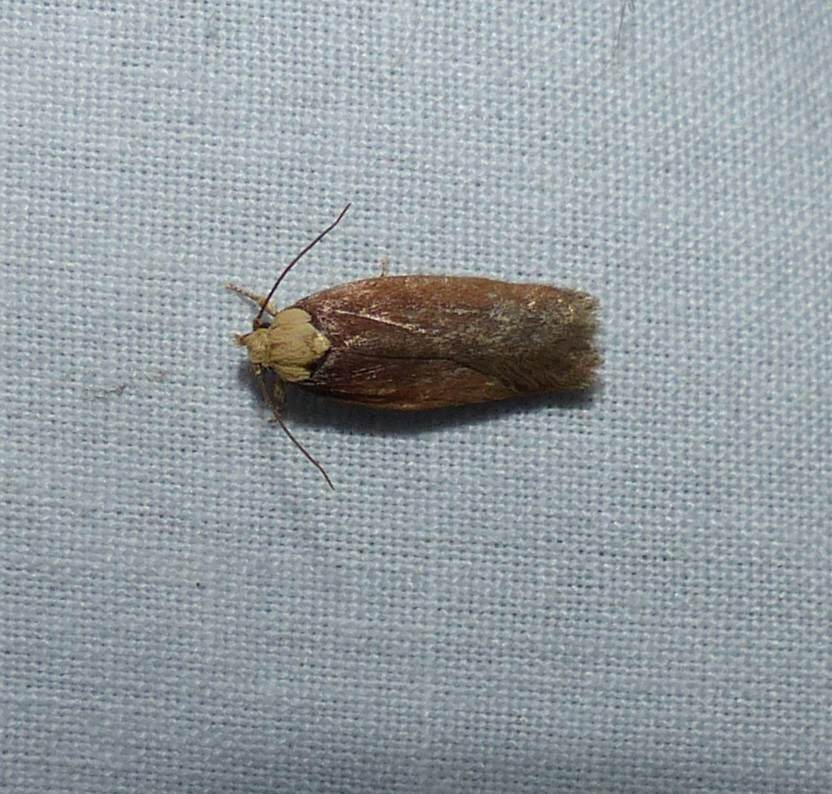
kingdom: Animalia
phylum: Arthropoda
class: Insecta
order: Lepidoptera
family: Depressariidae
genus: Depressaria
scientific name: Depressaria depressana
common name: Lost flat-body
